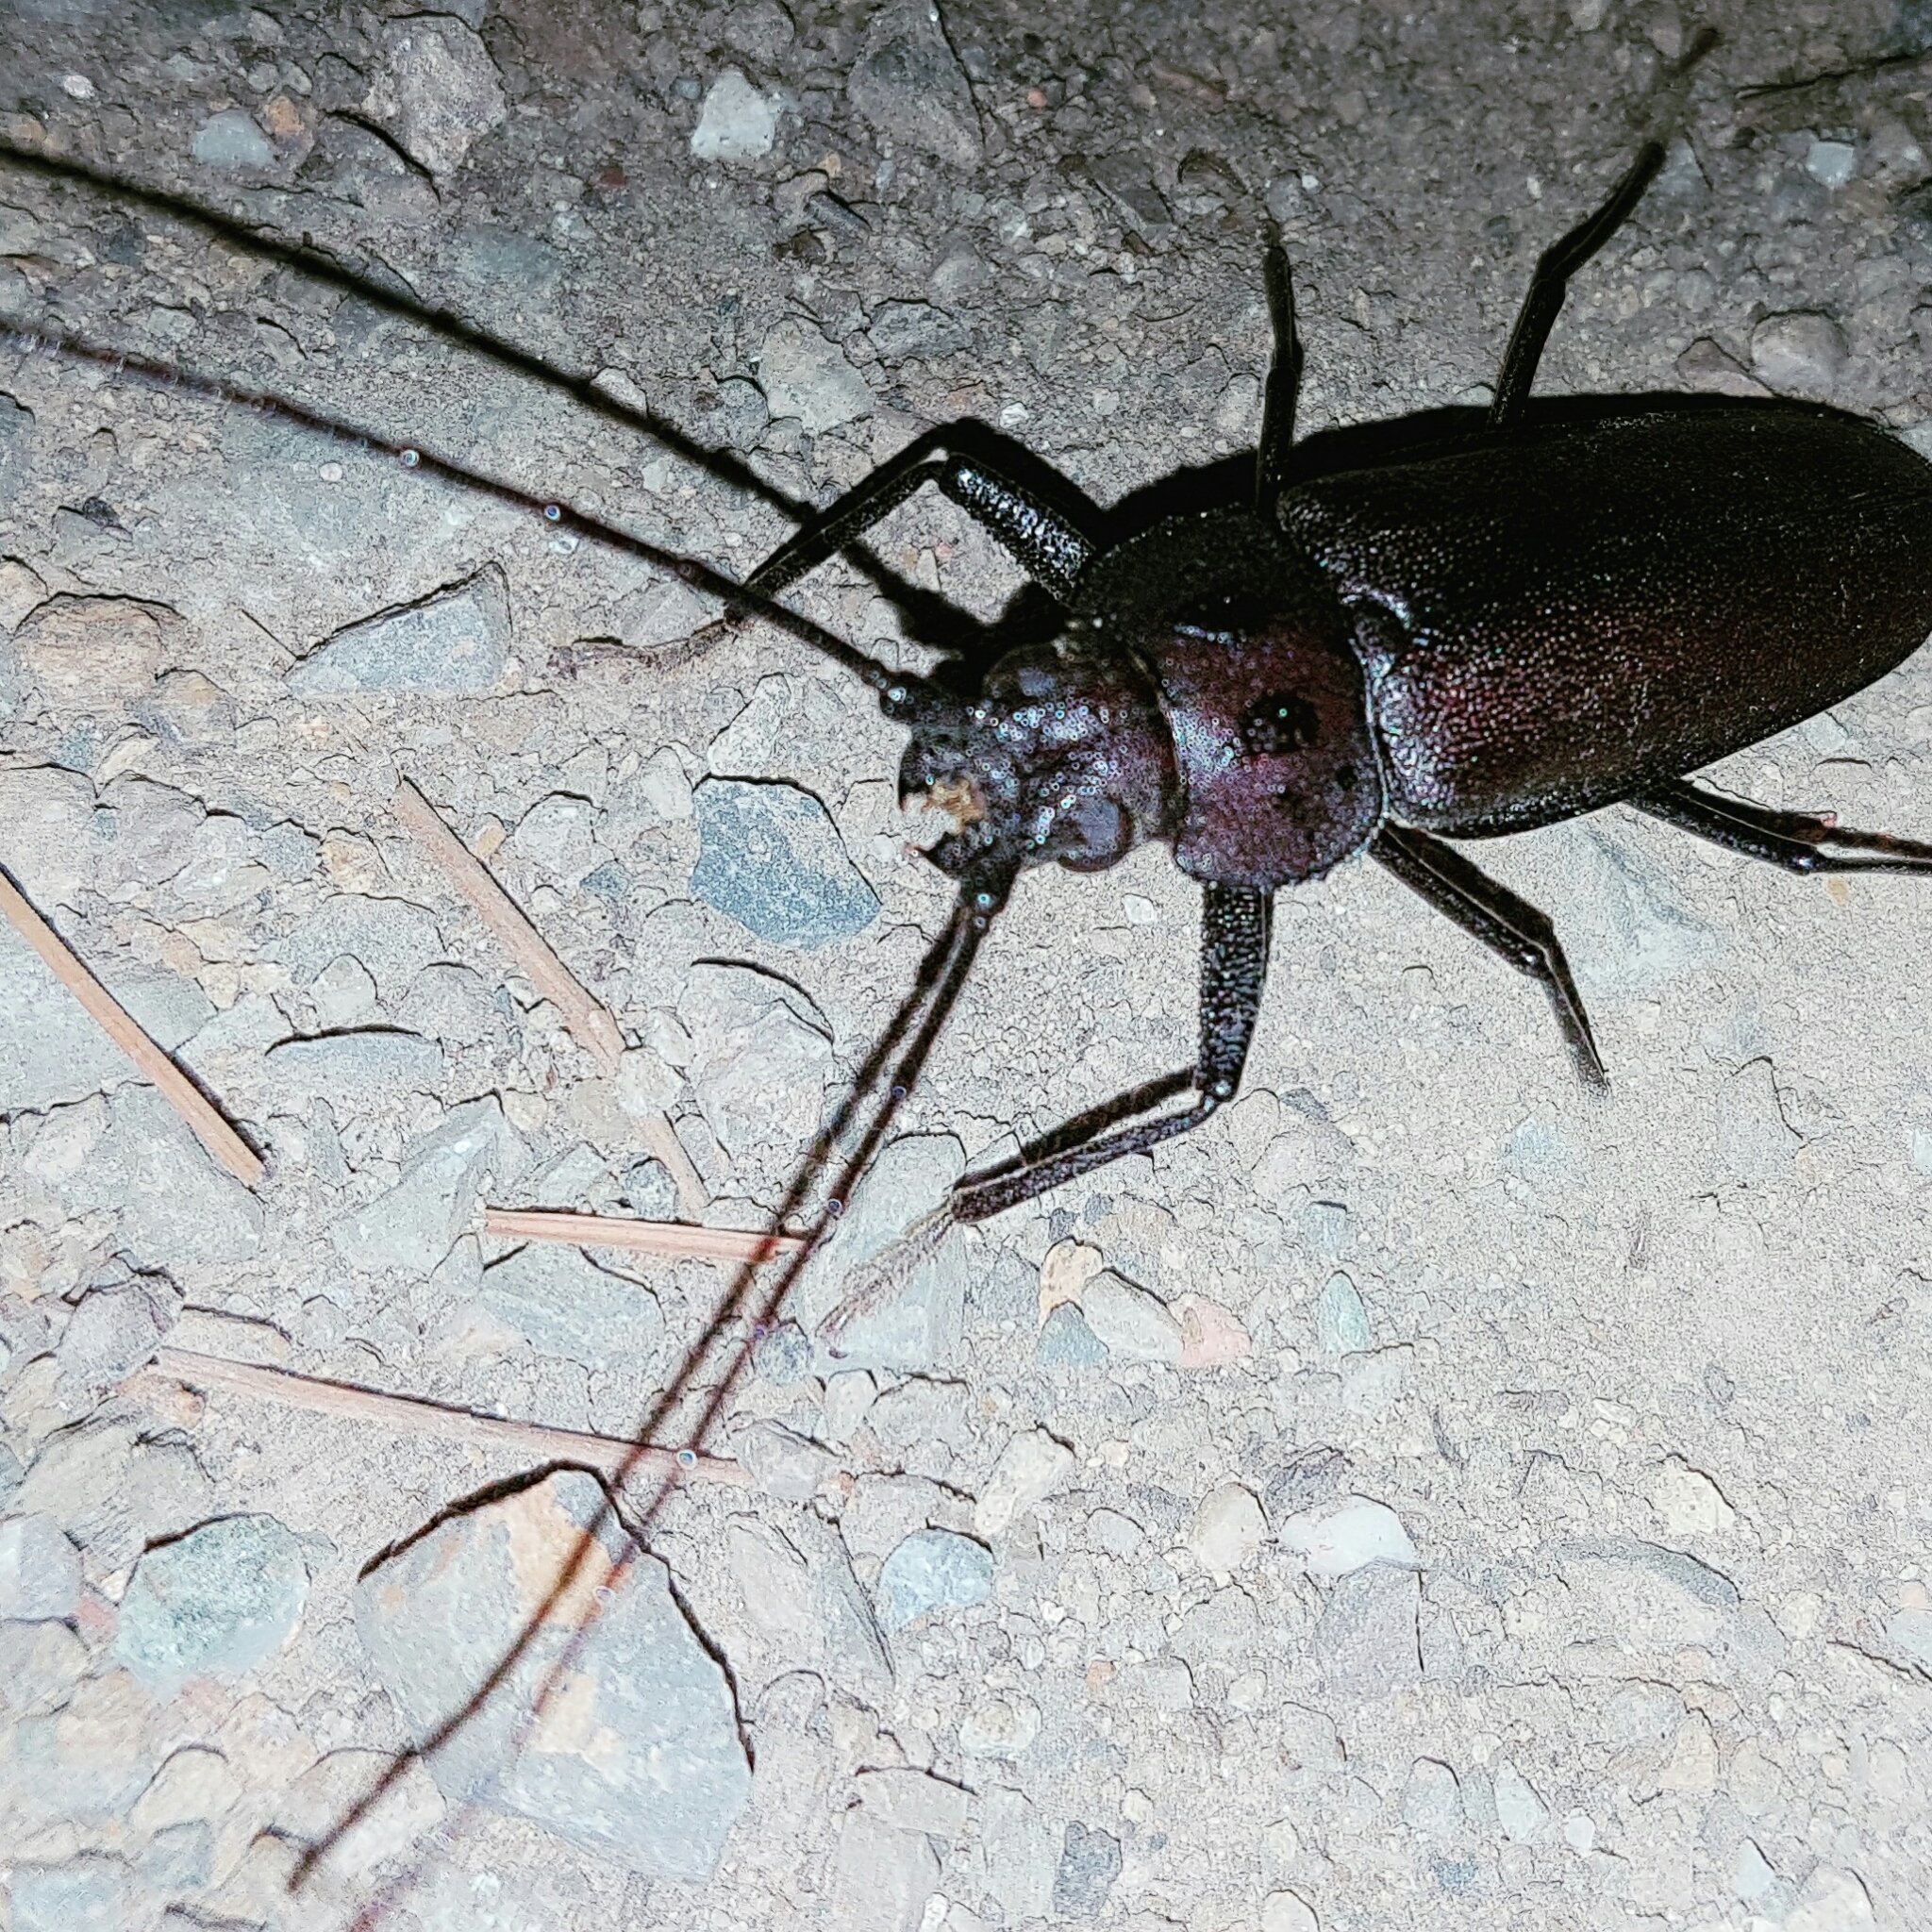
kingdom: Animalia
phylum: Arthropoda
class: Insecta
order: Coleoptera
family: Cerambycidae
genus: Ergates
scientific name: Ergates faber
